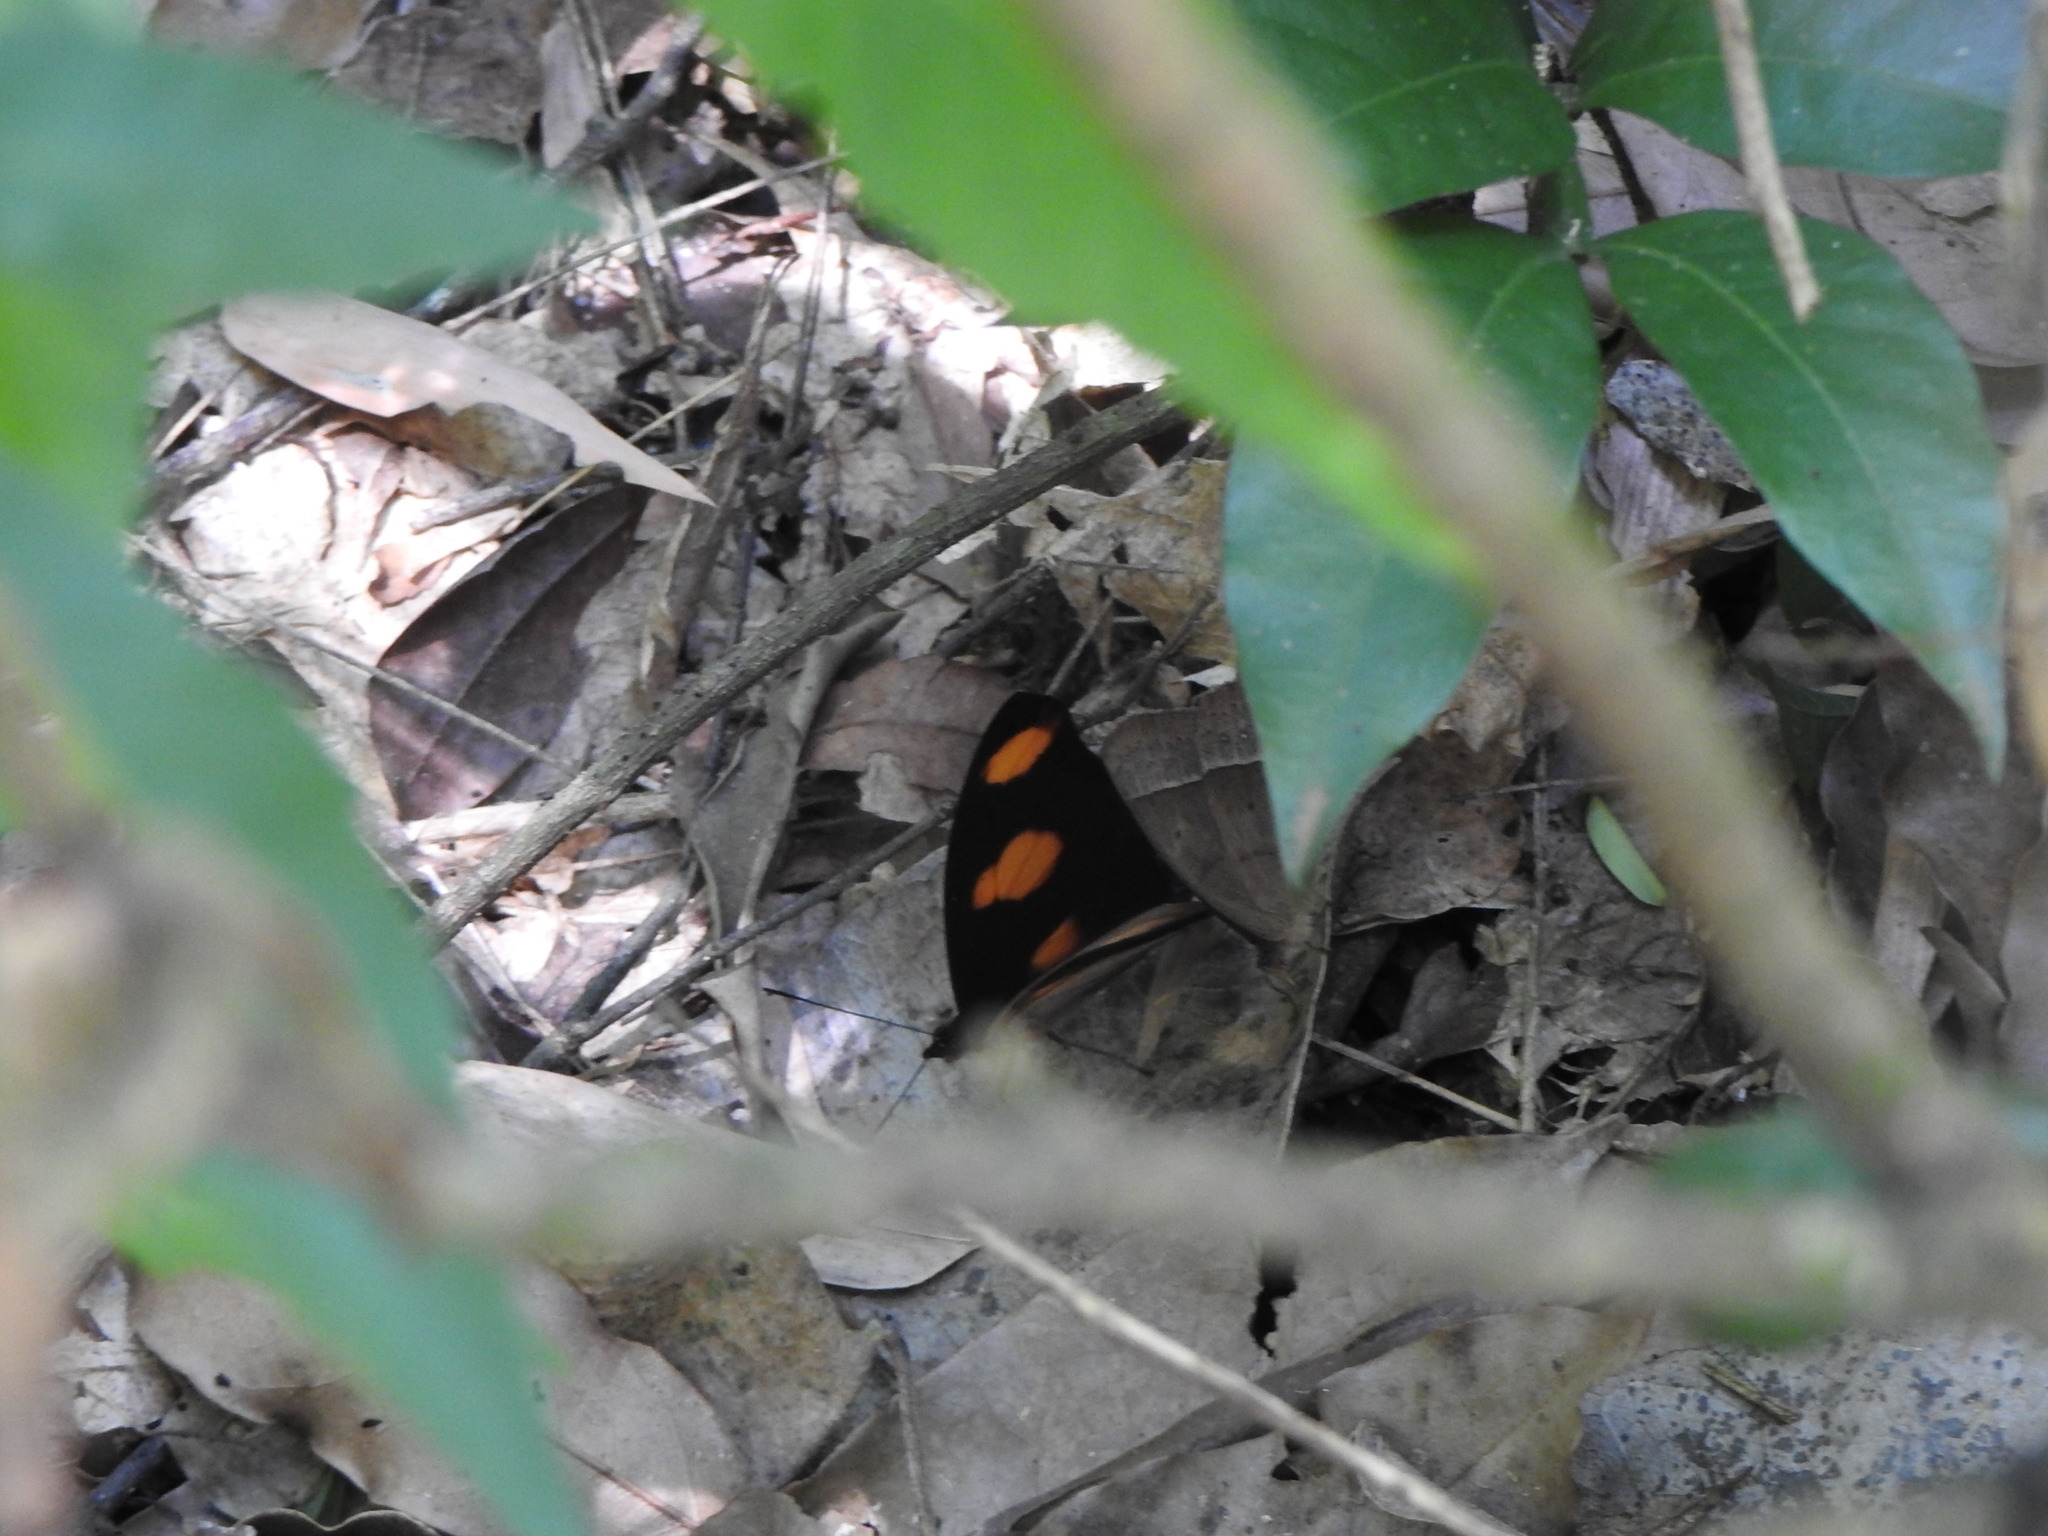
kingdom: Animalia
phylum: Arthropoda
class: Insecta
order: Lepidoptera
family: Nymphalidae
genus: Catonephele
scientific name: Catonephele numilia
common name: Blue-frosted banner
